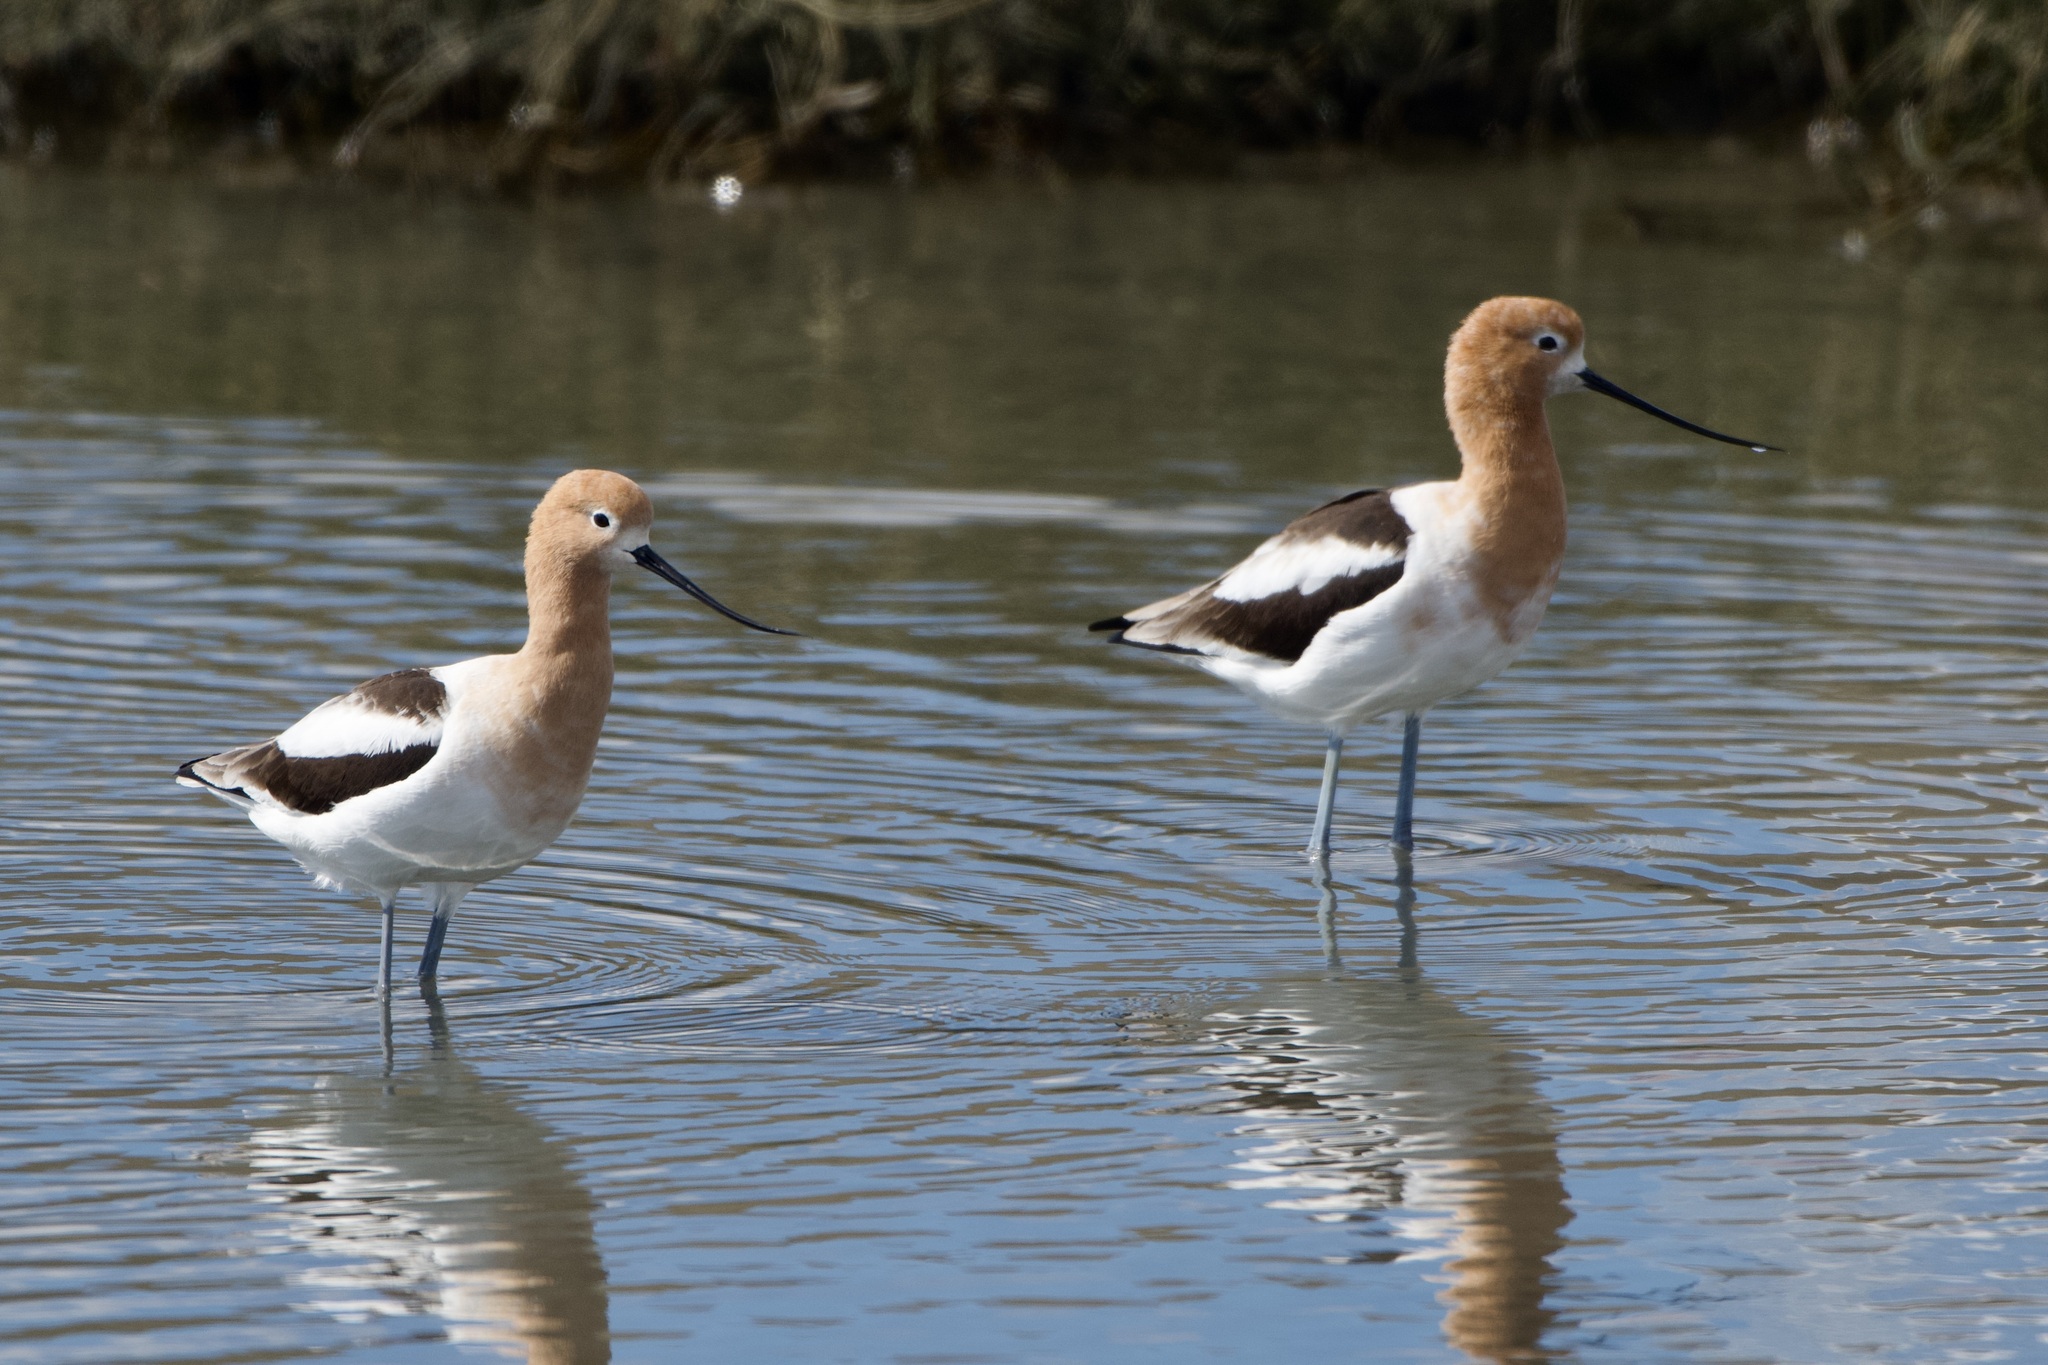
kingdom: Animalia
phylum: Chordata
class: Aves
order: Charadriiformes
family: Recurvirostridae
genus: Recurvirostra
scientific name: Recurvirostra americana
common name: American avocet
